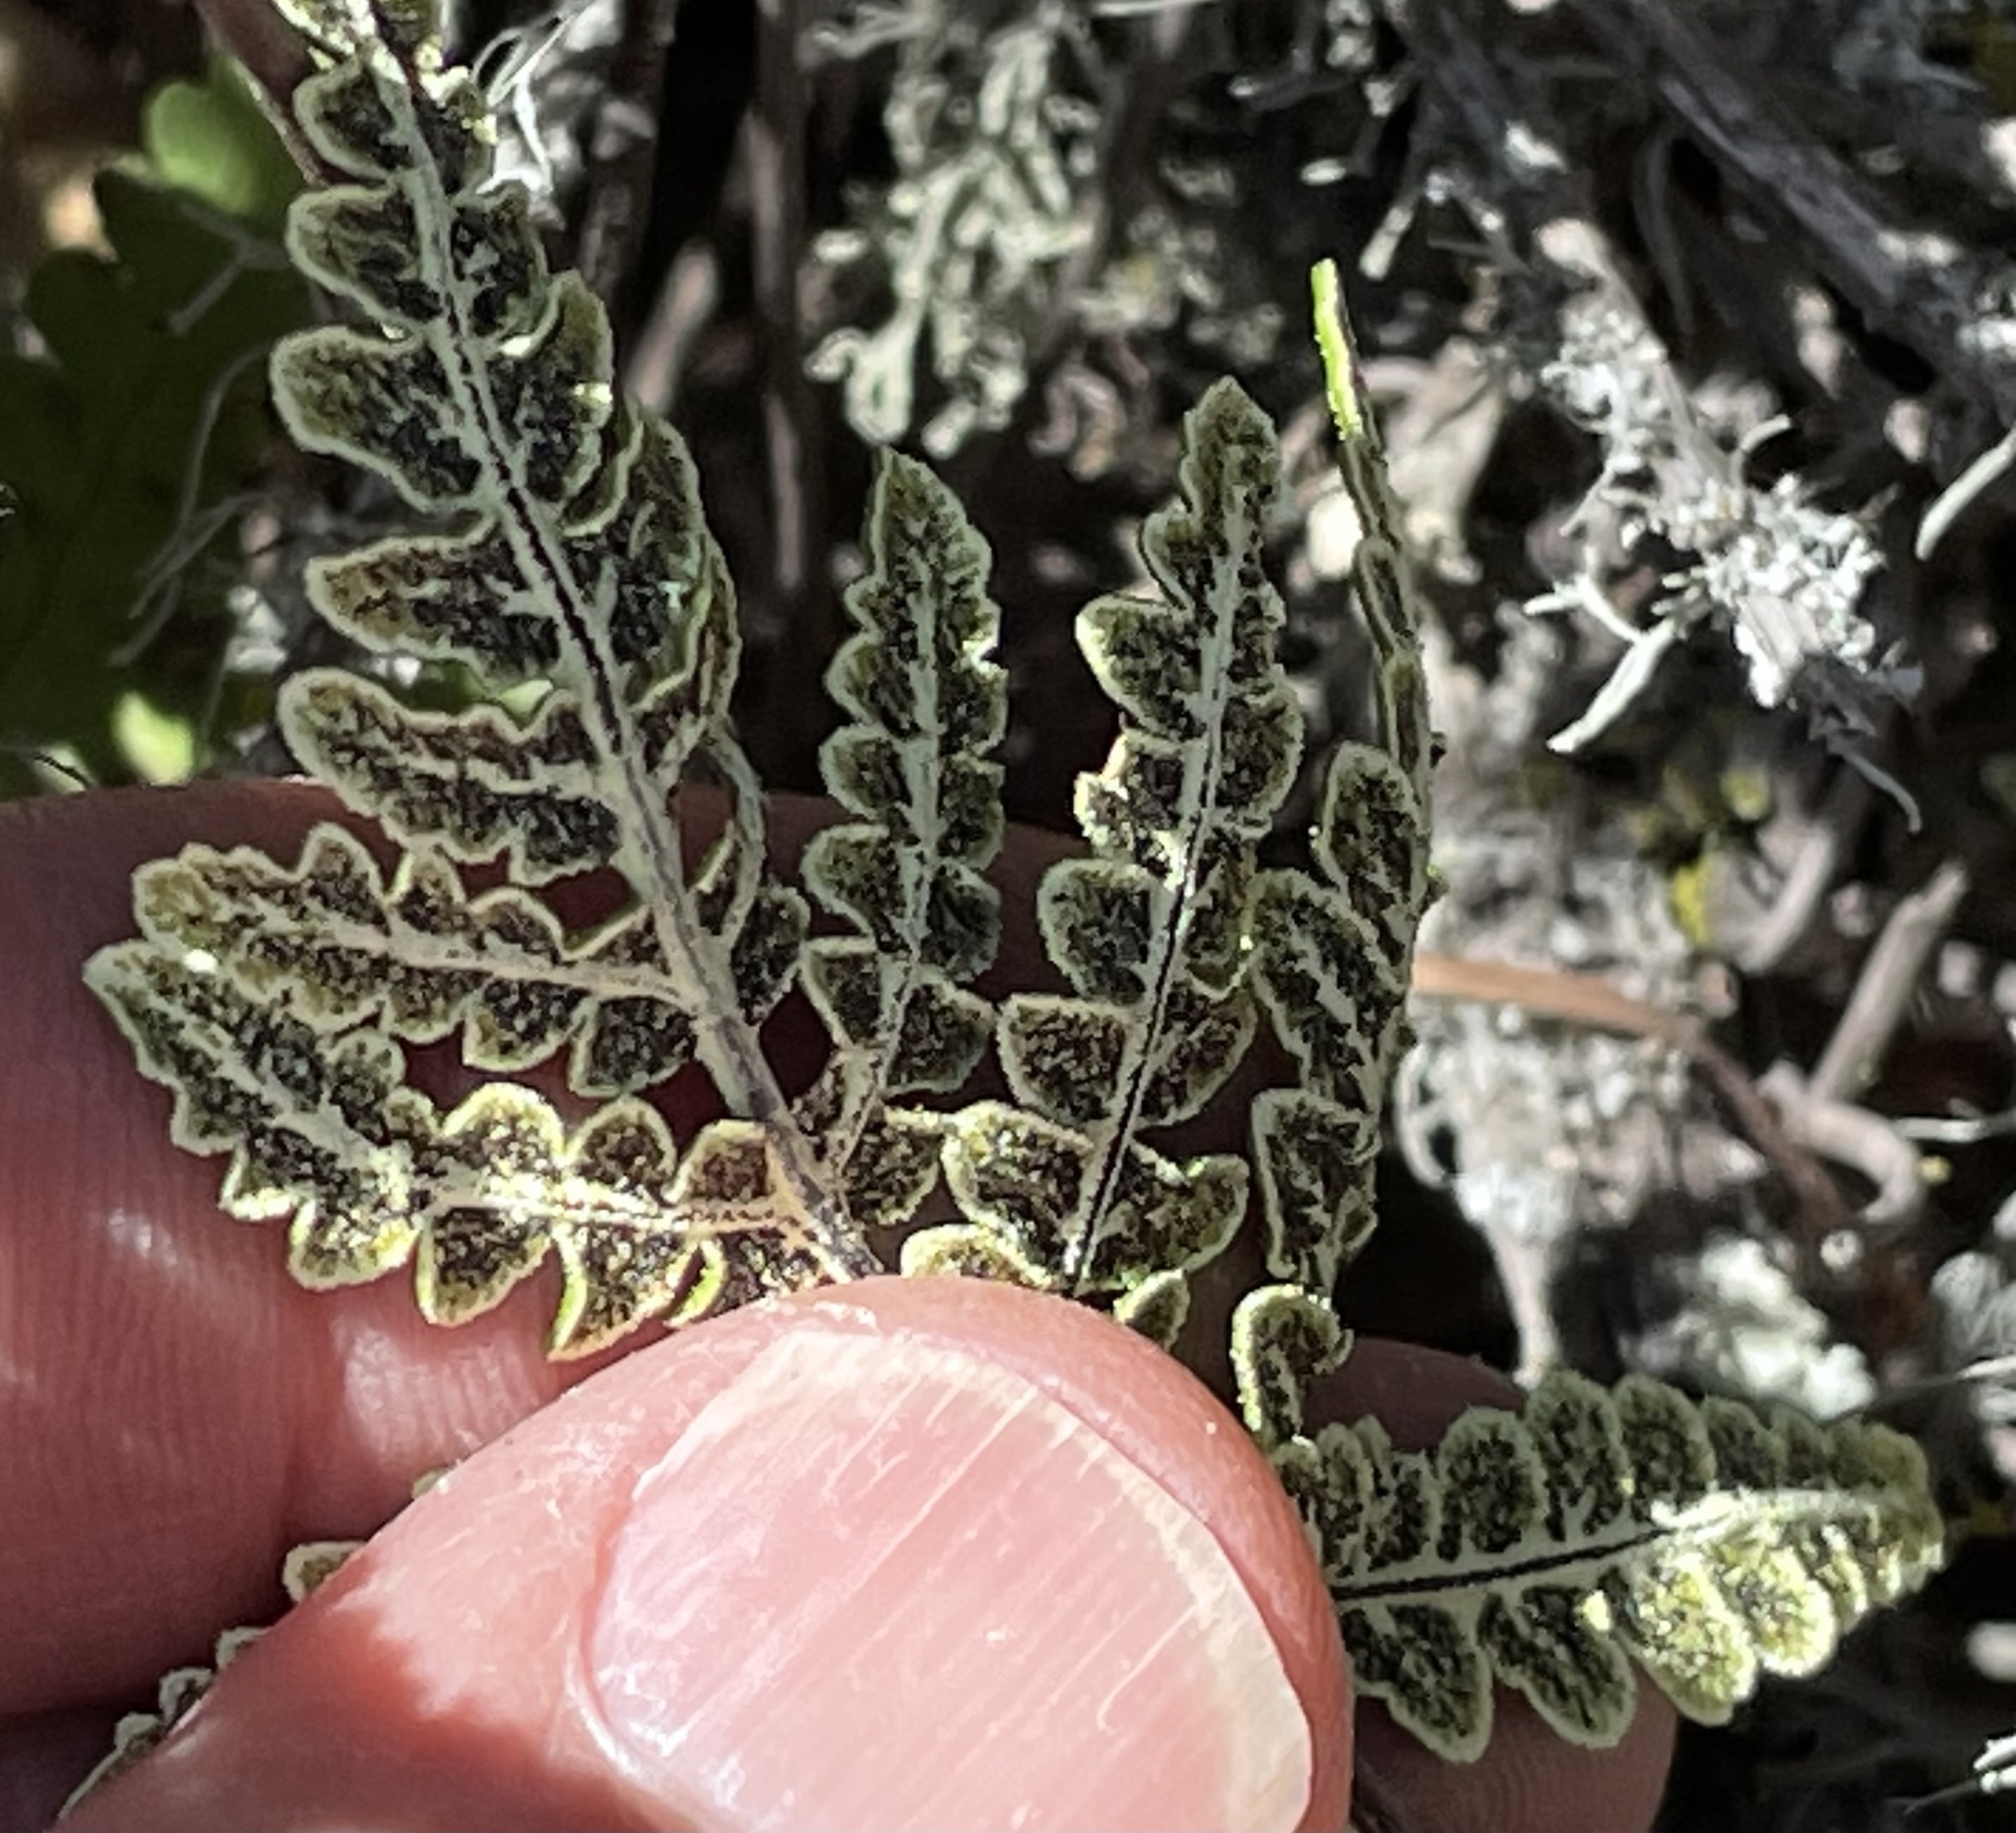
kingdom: Plantae
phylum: Tracheophyta
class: Polypodiopsida
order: Polypodiales
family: Pteridaceae
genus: Pentagramma
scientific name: Pentagramma triangularis
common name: Gold fern
